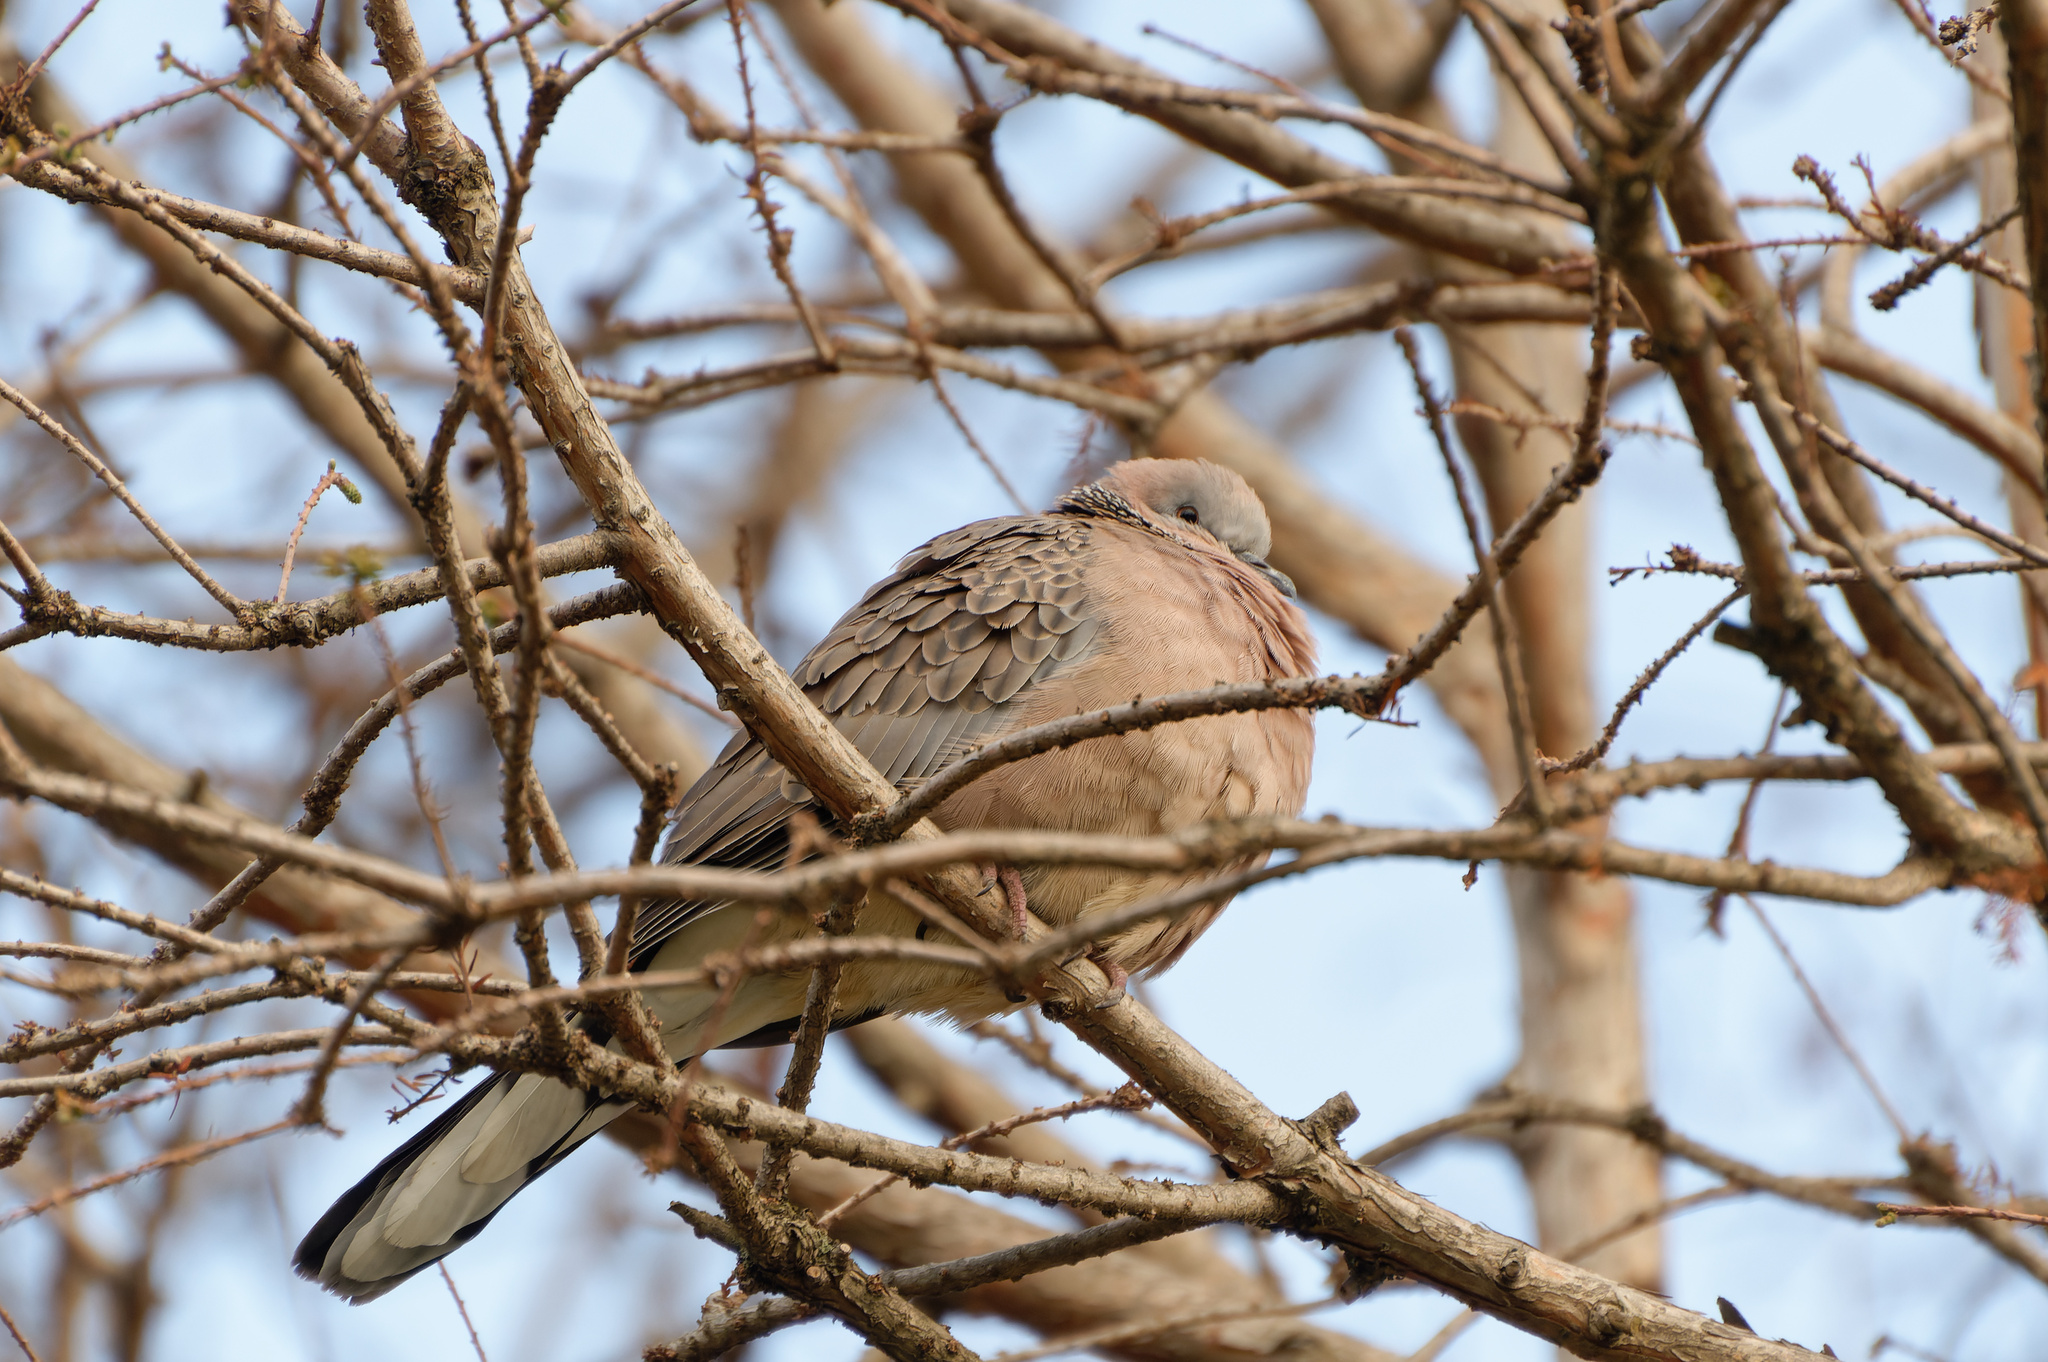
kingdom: Animalia
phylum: Chordata
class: Aves
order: Columbiformes
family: Columbidae
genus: Spilopelia
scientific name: Spilopelia chinensis
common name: Spotted dove
